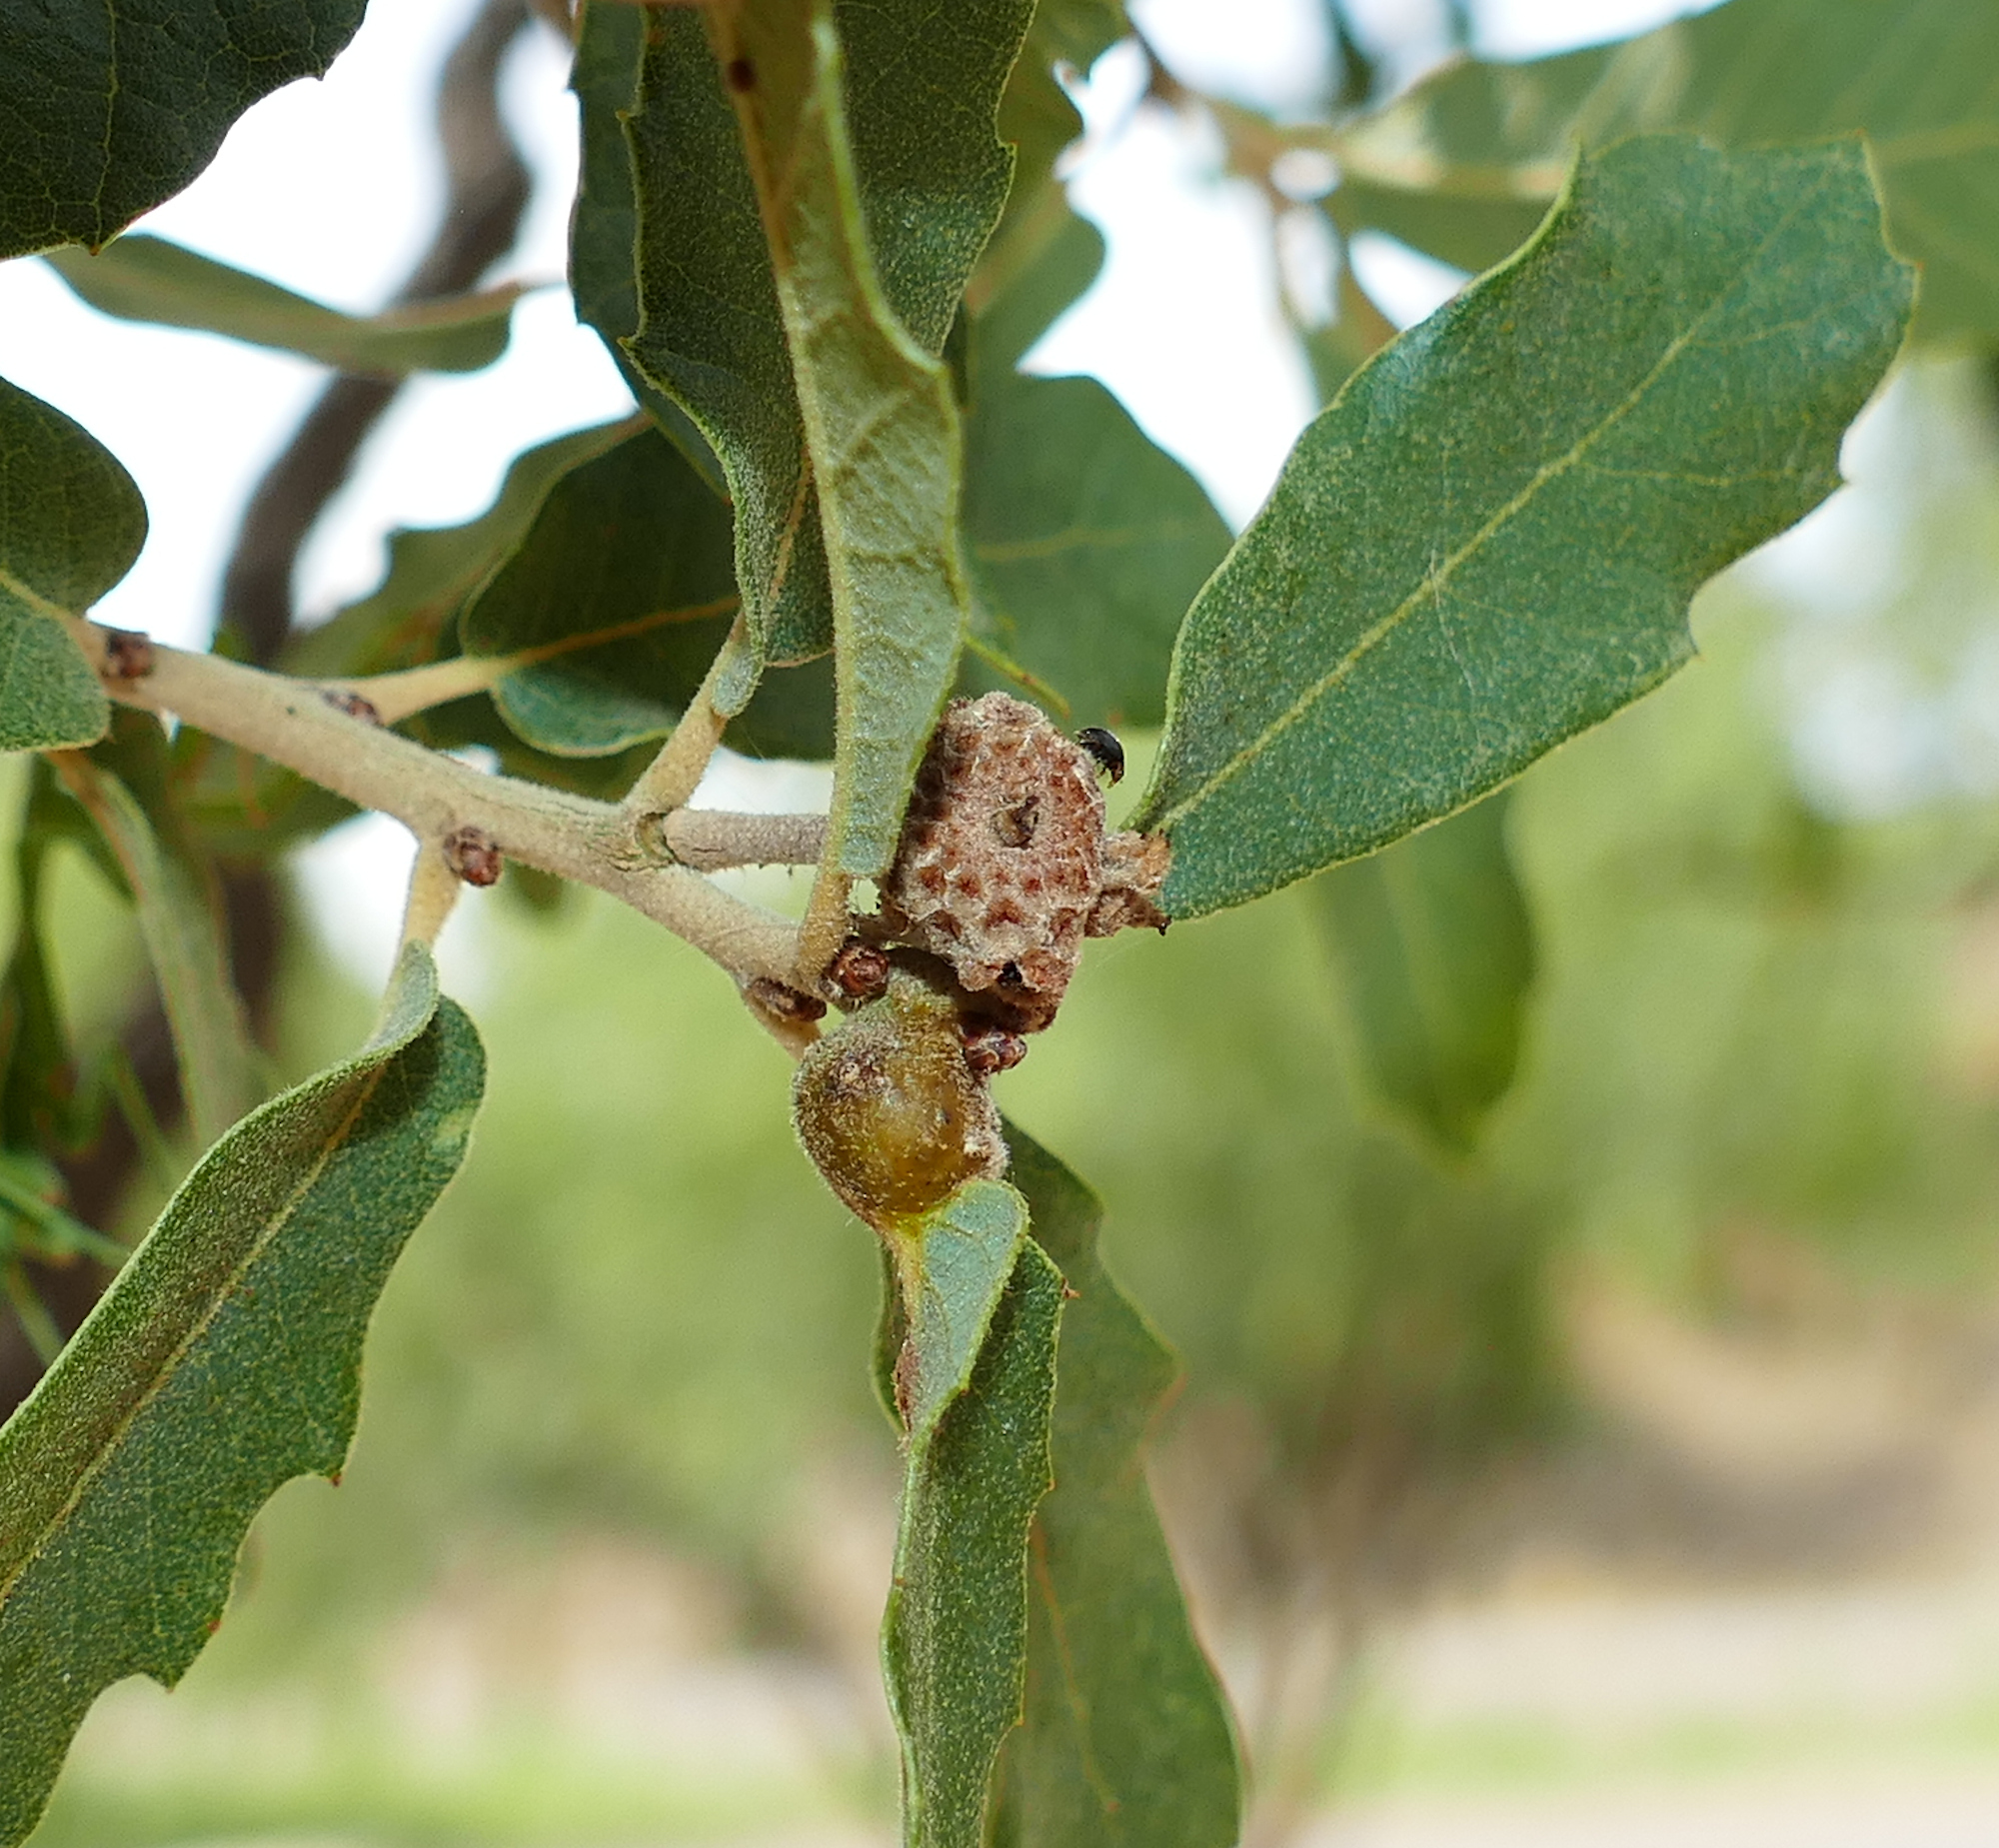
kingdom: Animalia
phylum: Arthropoda
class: Insecta
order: Hymenoptera
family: Cynipidae
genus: Andricus
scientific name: Andricus
